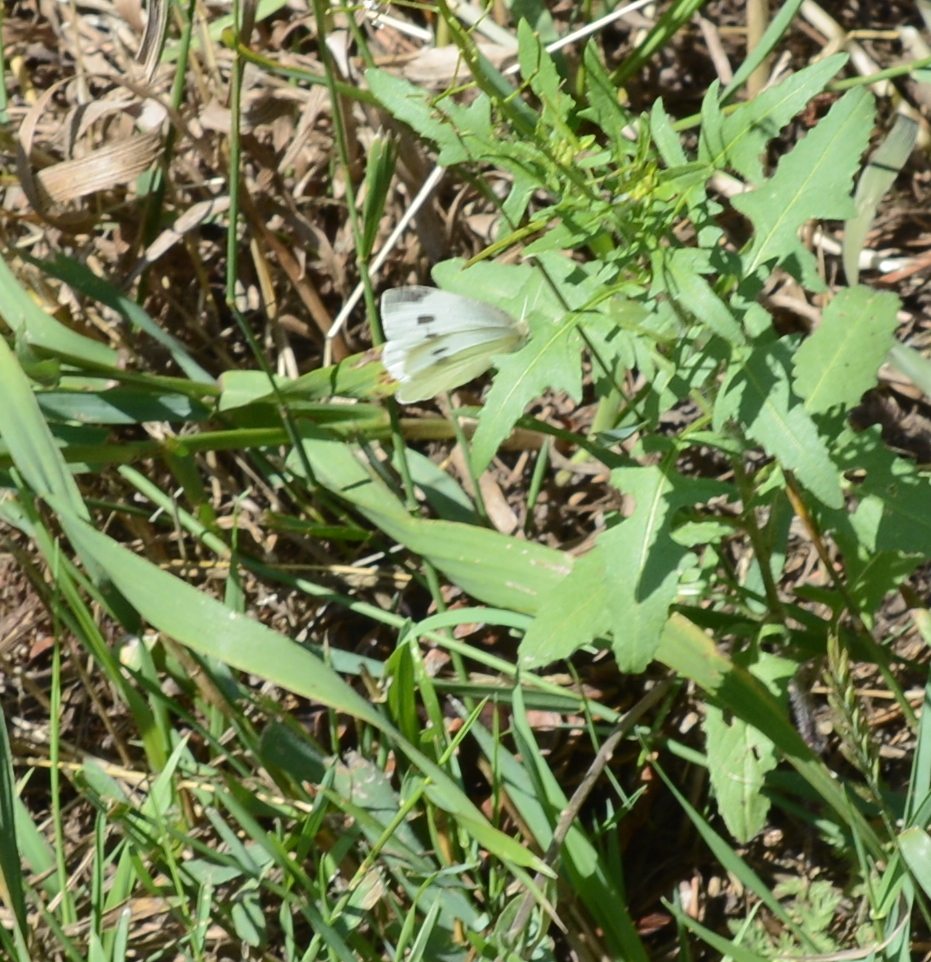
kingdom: Animalia
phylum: Arthropoda
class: Insecta
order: Lepidoptera
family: Pieridae
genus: Pieris
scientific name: Pieris rapae
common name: Small white
